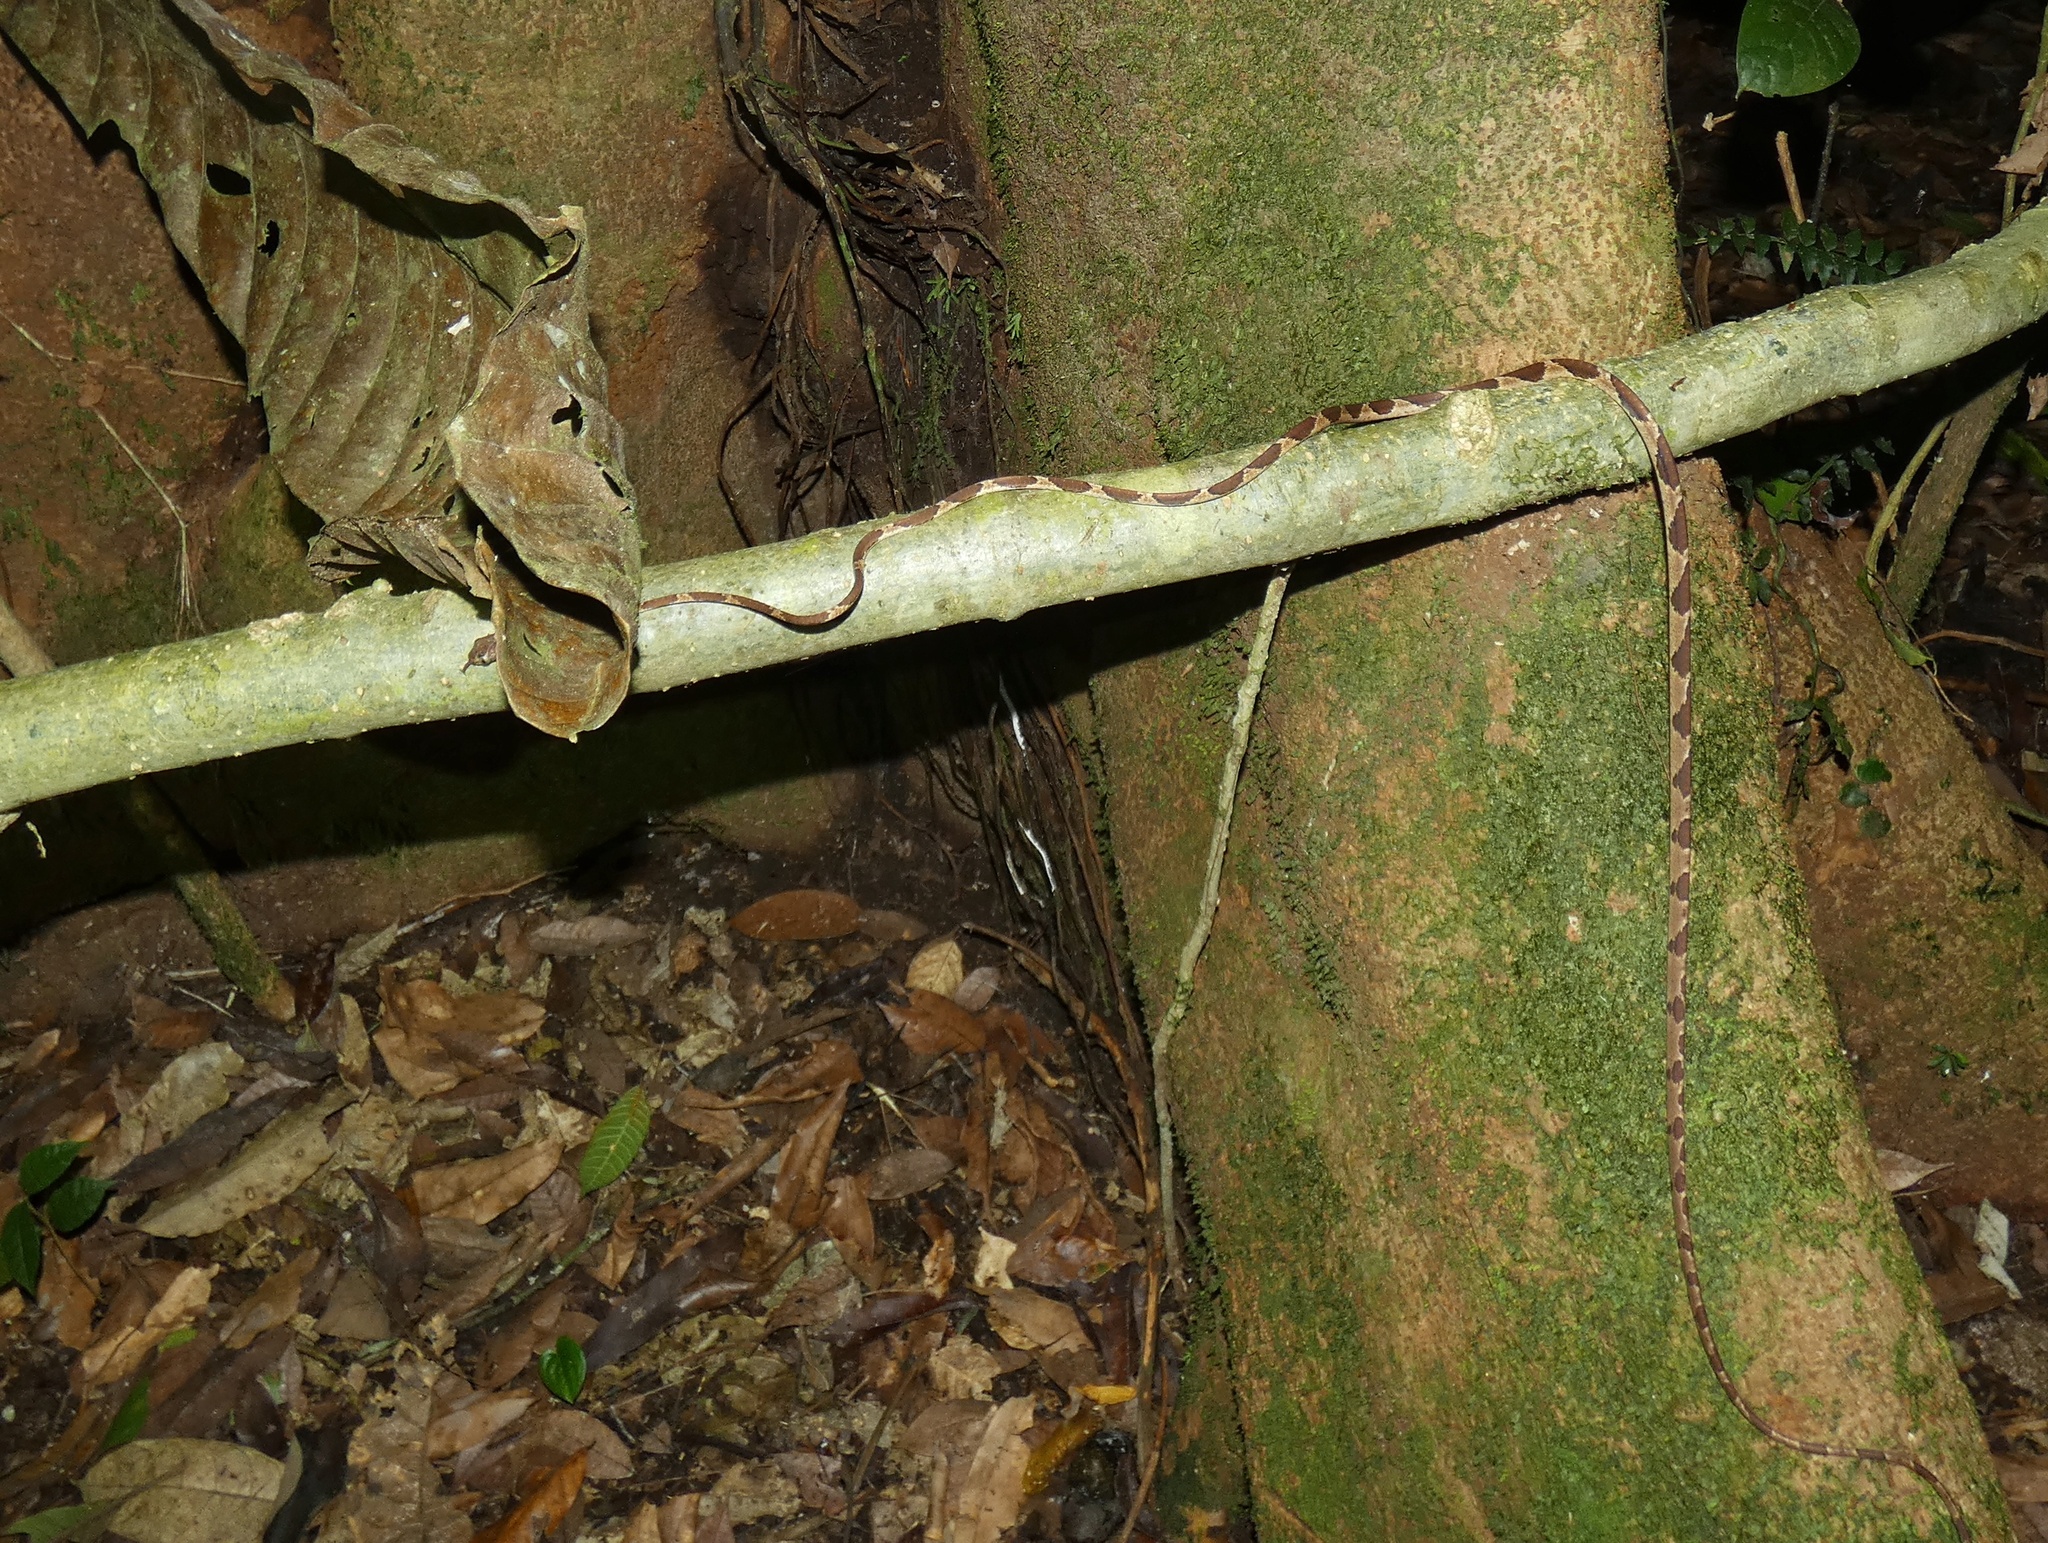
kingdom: Animalia
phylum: Chordata
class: Squamata
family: Colubridae
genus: Imantodes
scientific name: Imantodes cenchoa
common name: Blunthead tree snake
